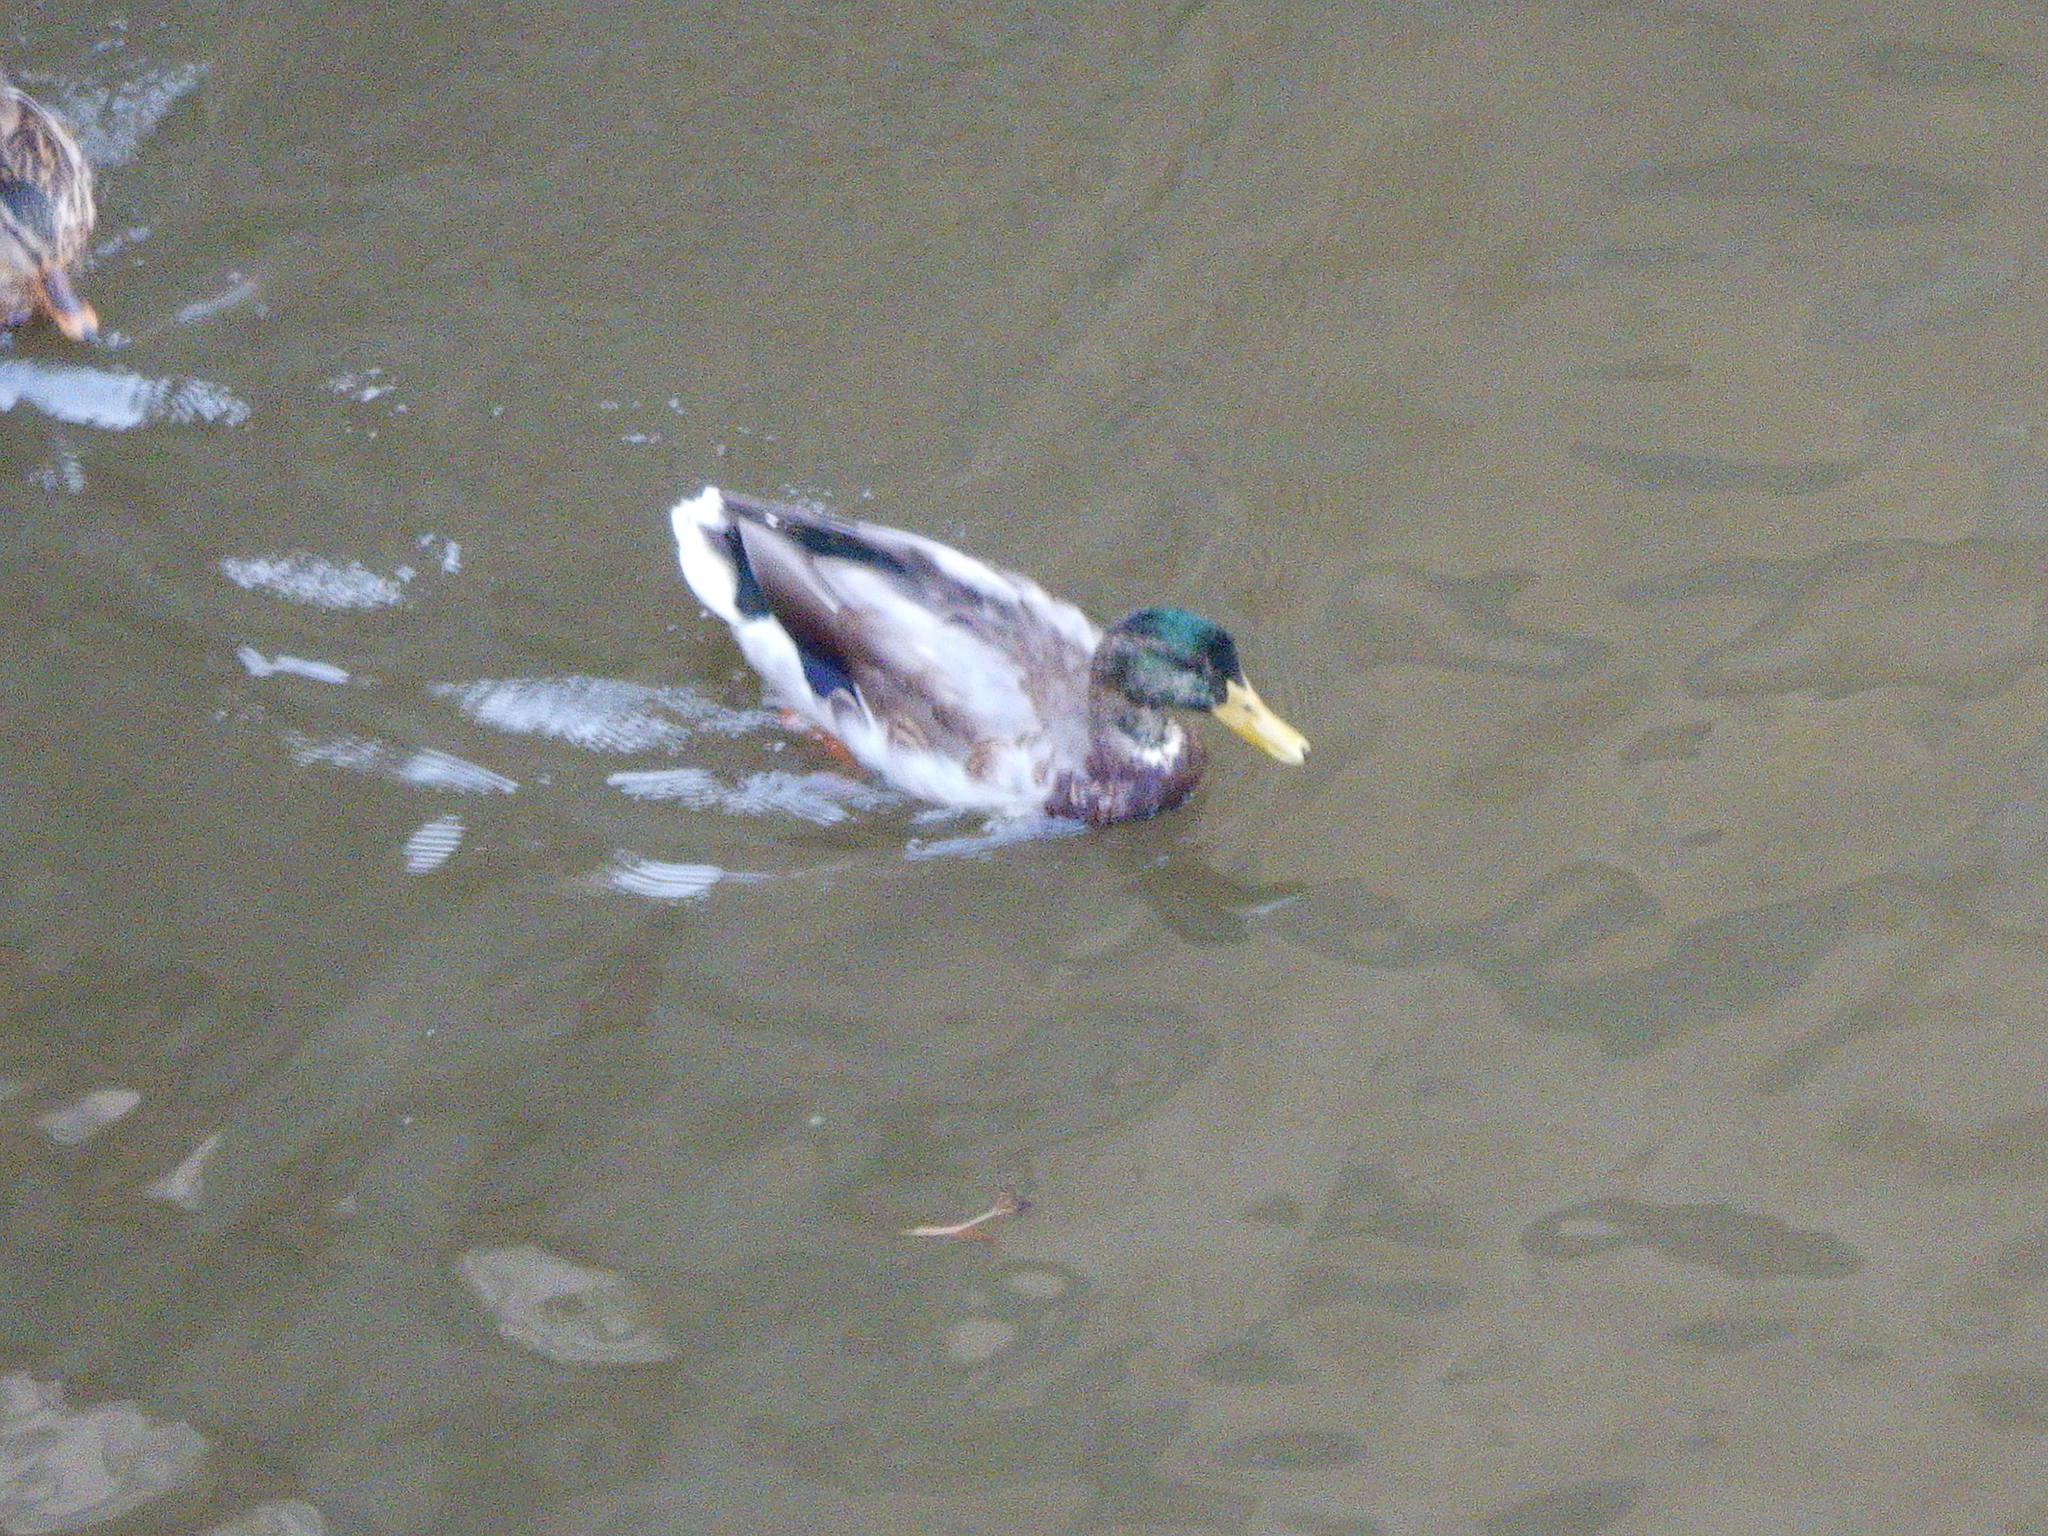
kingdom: Animalia
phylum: Chordata
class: Aves
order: Anseriformes
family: Anatidae
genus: Anas
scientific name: Anas platyrhynchos
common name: Mallard
